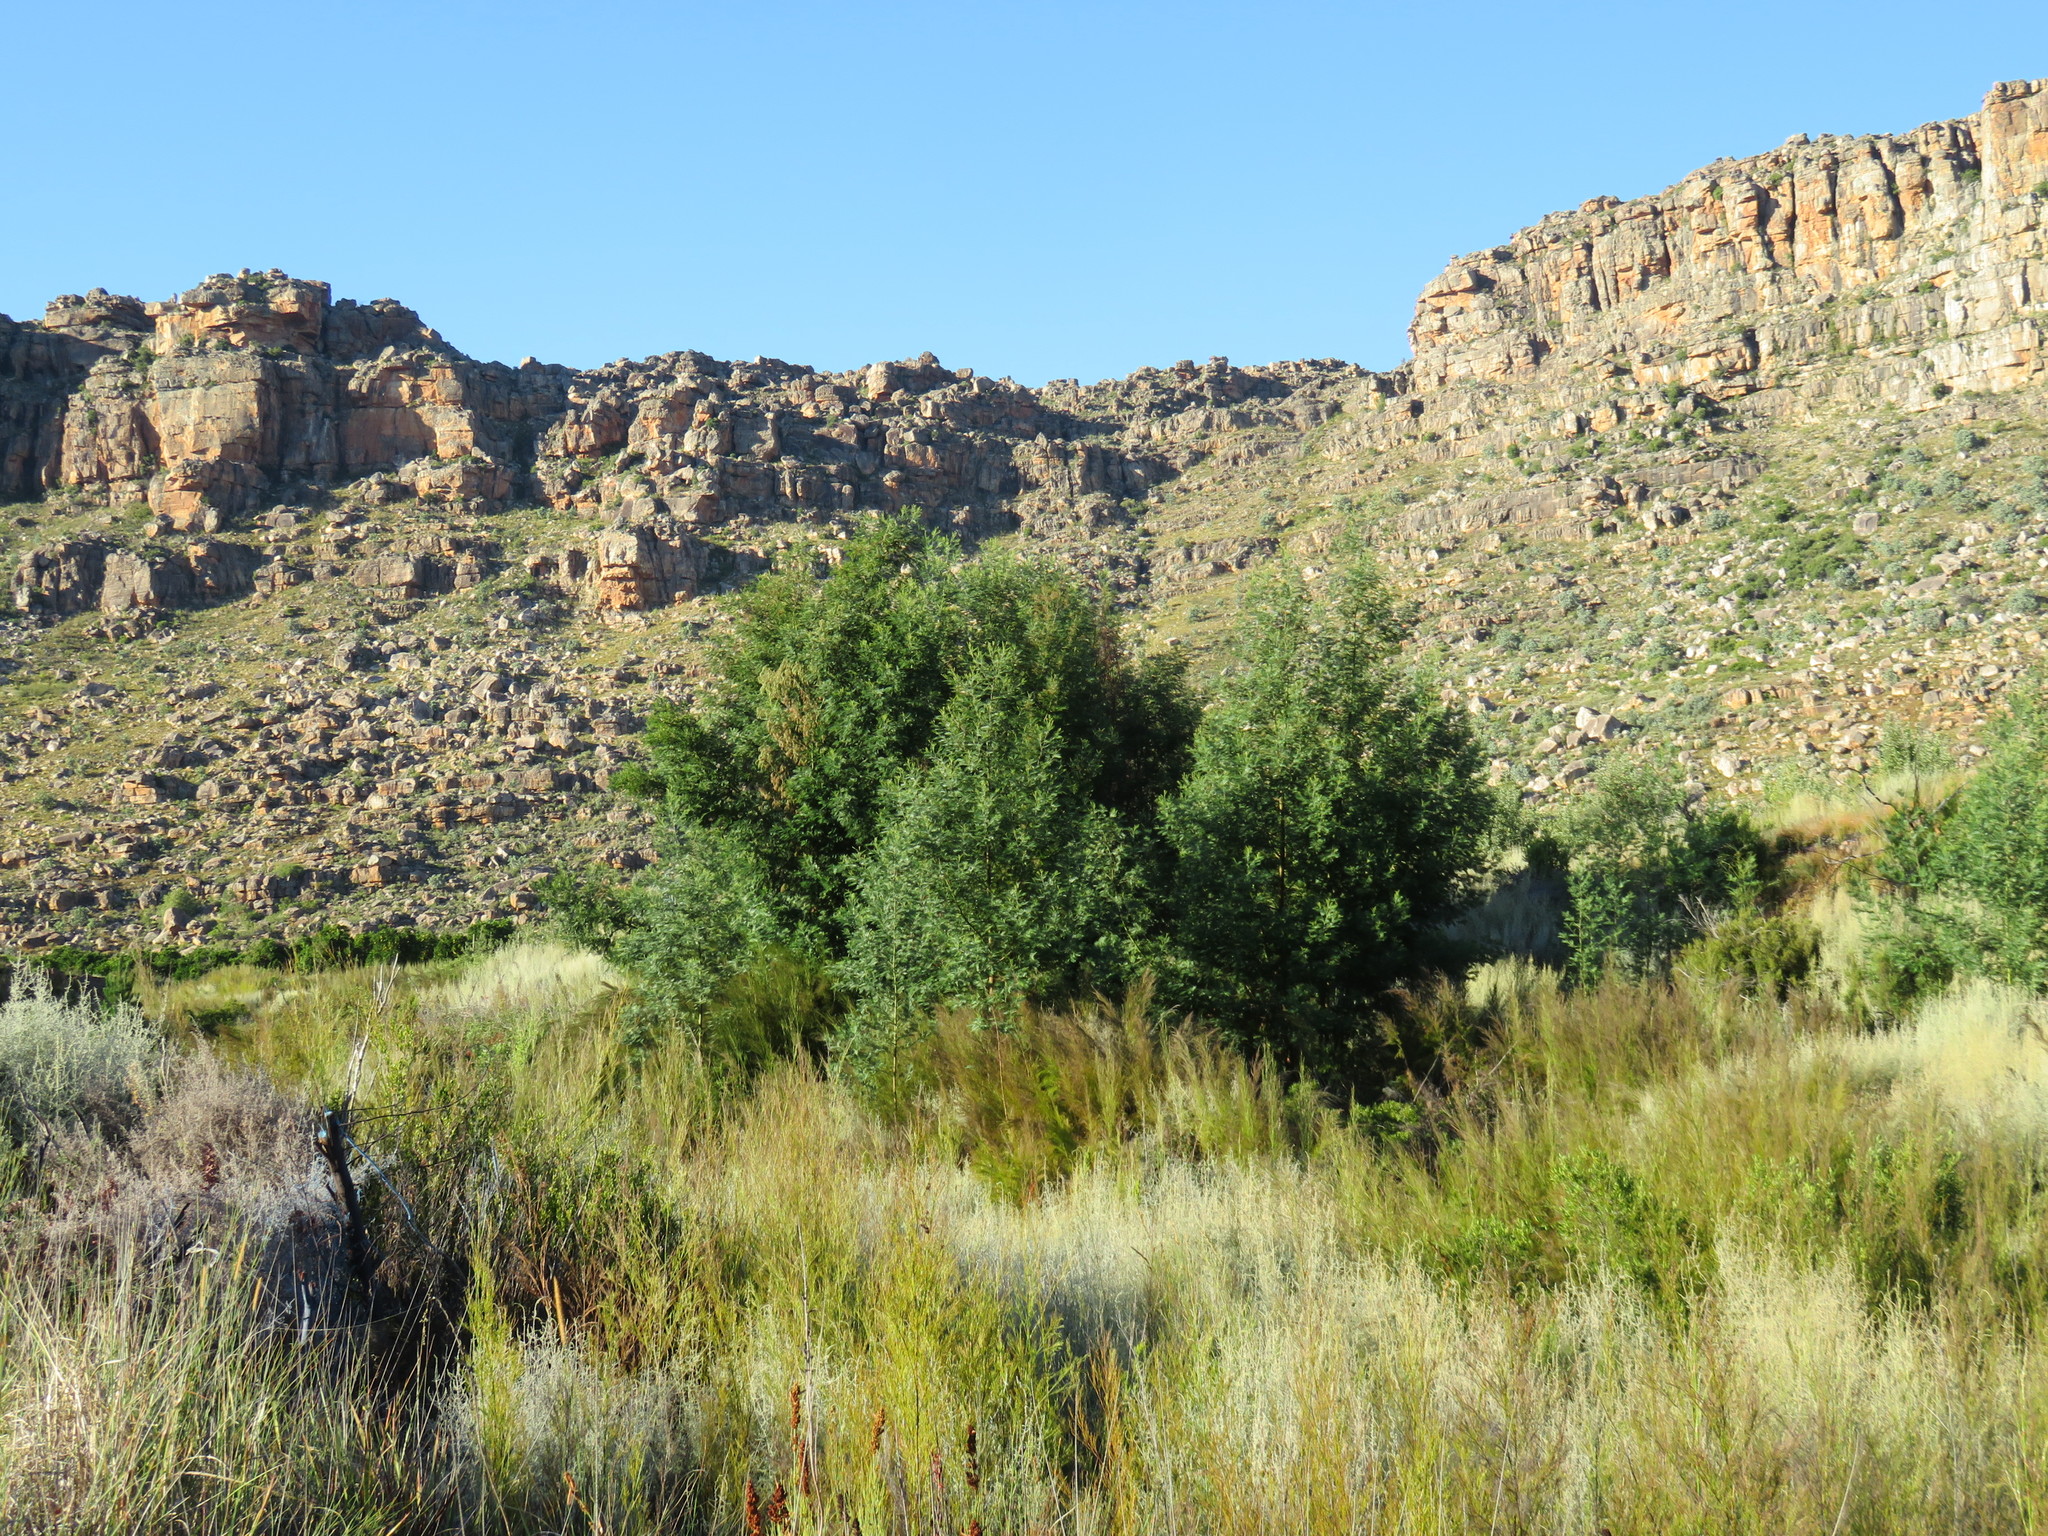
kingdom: Plantae
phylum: Tracheophyta
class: Magnoliopsida
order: Fabales
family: Fabaceae
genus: Acacia
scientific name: Acacia mearnsii
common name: Black wattle
